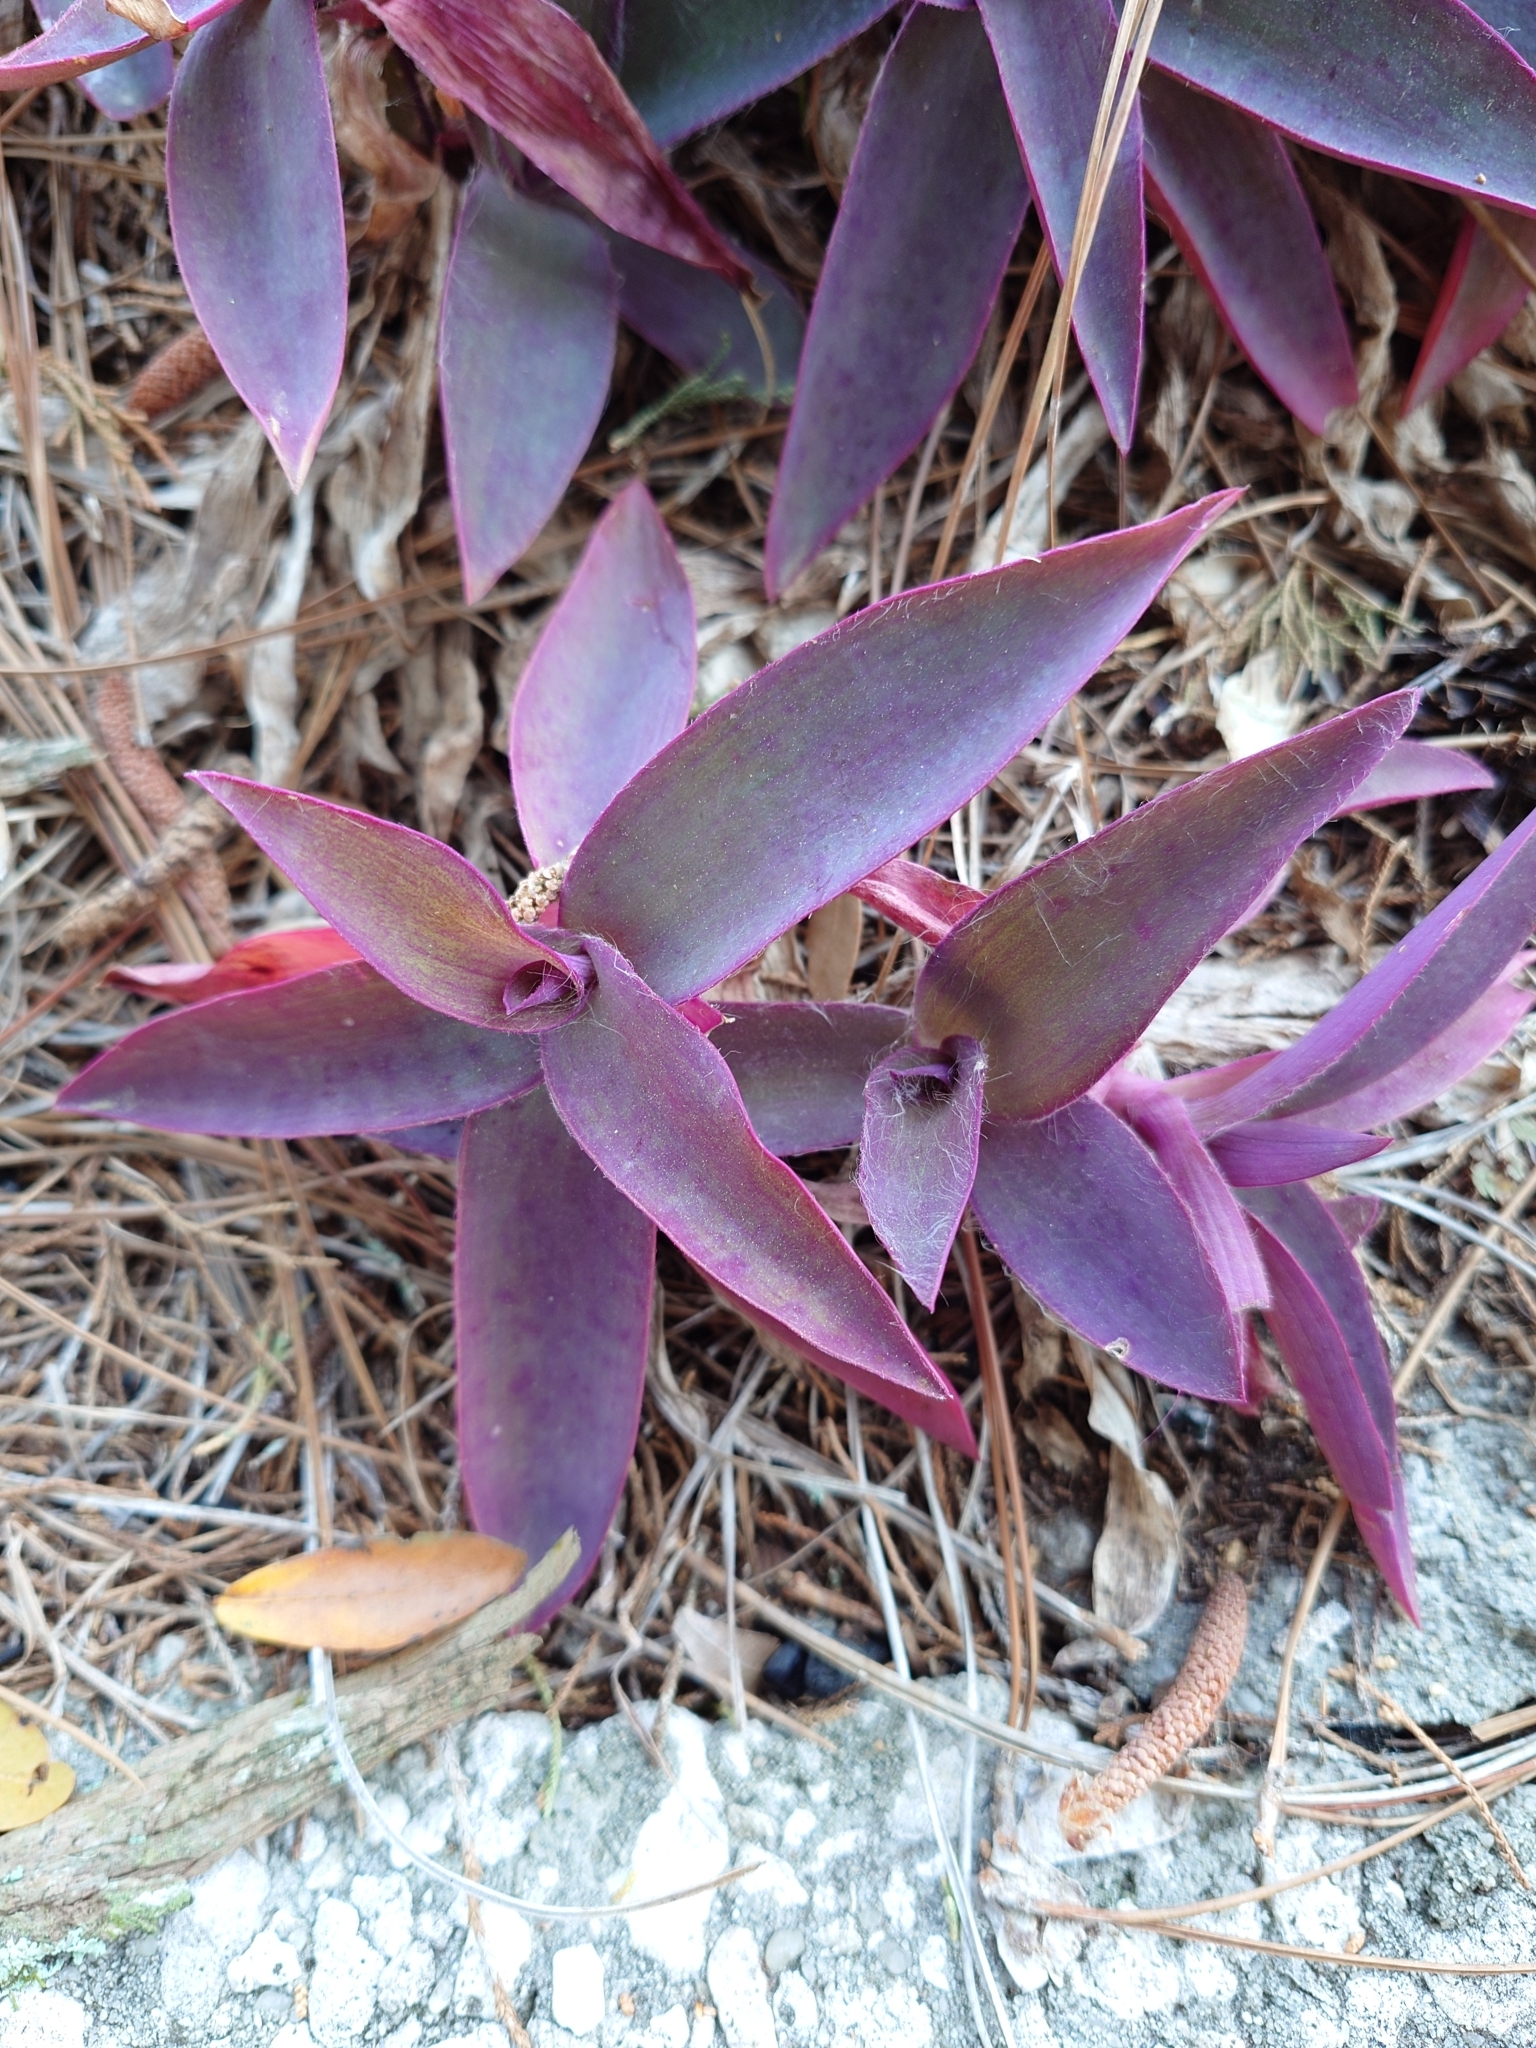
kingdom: Plantae
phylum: Tracheophyta
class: Liliopsida
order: Commelinales
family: Commelinaceae
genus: Tradescantia
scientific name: Tradescantia pallida
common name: Purpleheart
